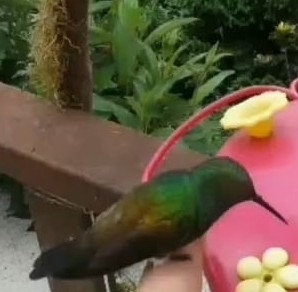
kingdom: Animalia
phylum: Chordata
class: Aves
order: Apodiformes
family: Trochilidae
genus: Saucerottia
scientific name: Saucerottia edward
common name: Snowy-bellied hummingbird
